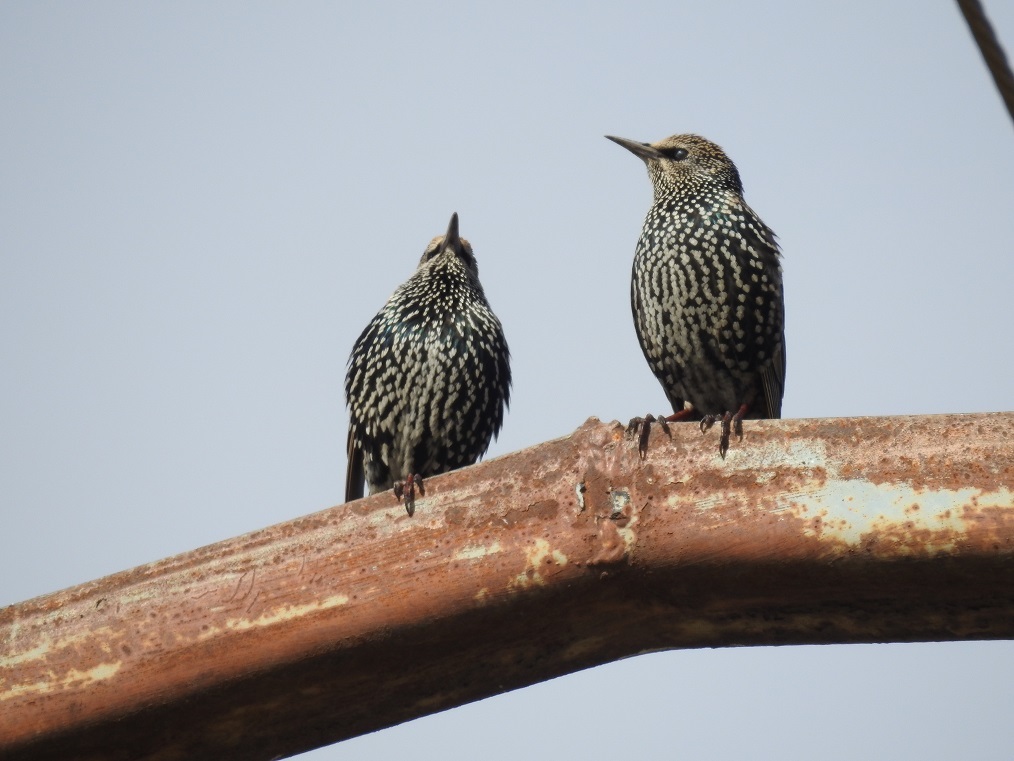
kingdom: Animalia
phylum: Chordata
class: Aves
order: Passeriformes
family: Sturnidae
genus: Sturnus
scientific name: Sturnus vulgaris
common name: Common starling
